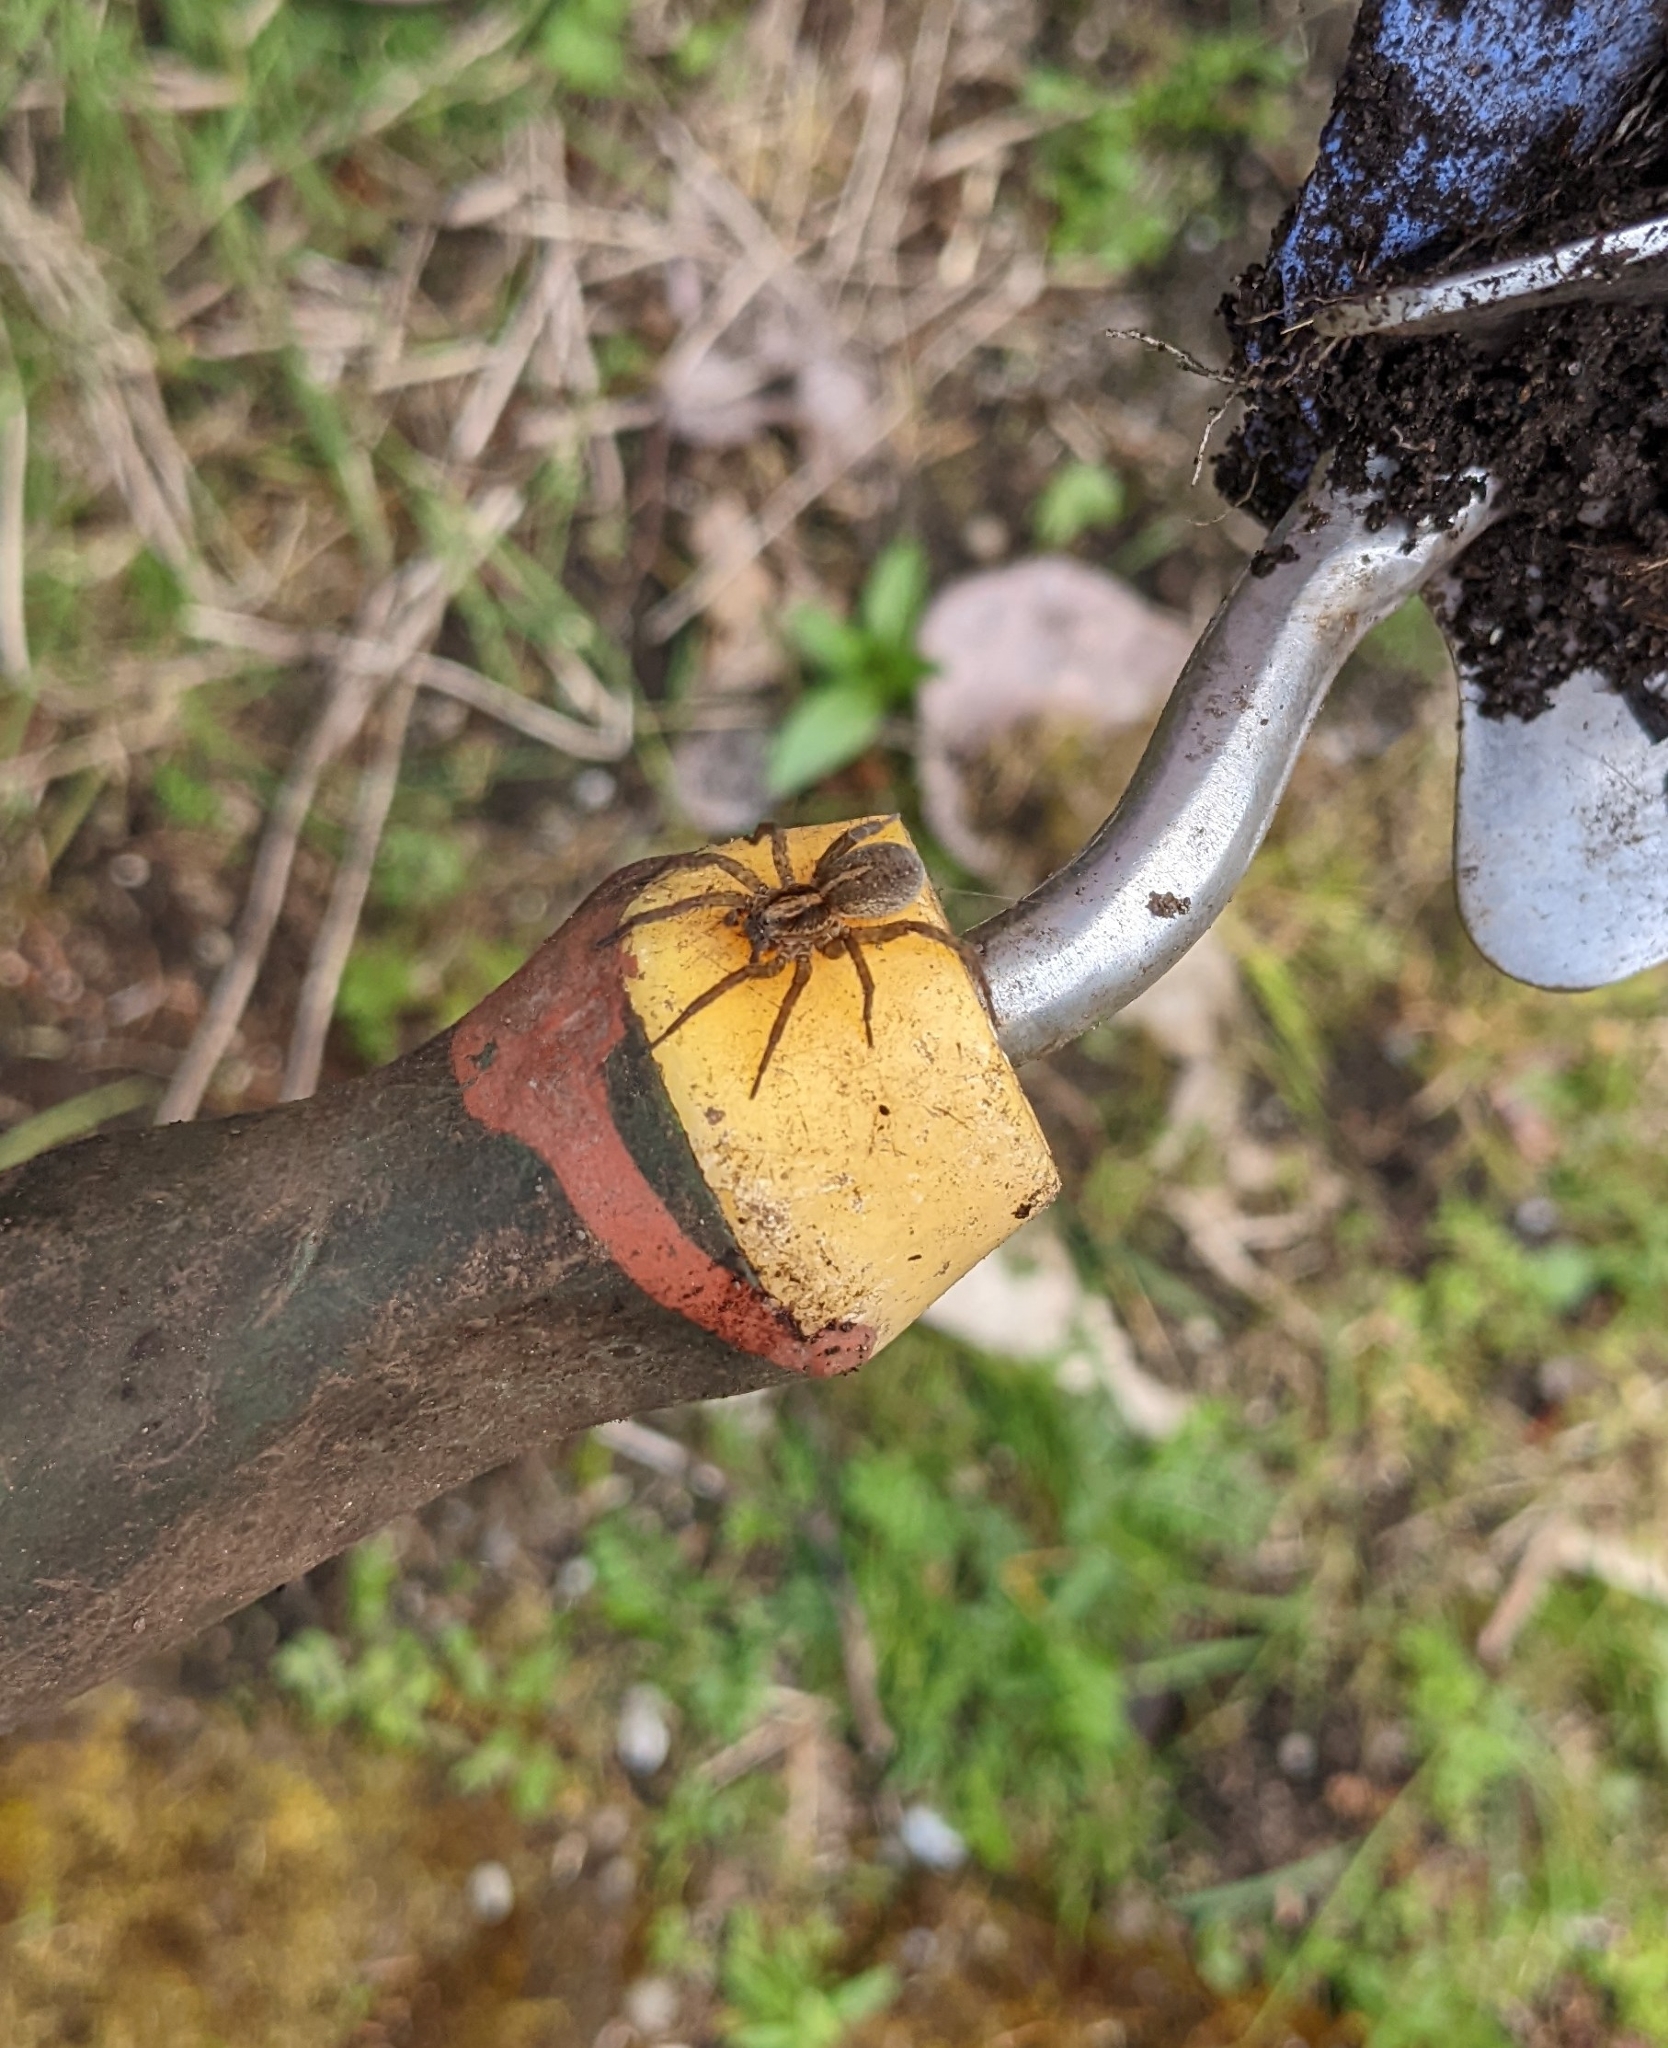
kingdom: Animalia
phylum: Arthropoda
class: Arachnida
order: Araneae
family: Lycosidae
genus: Trochosa
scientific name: Trochosa ruricola
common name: Spider
